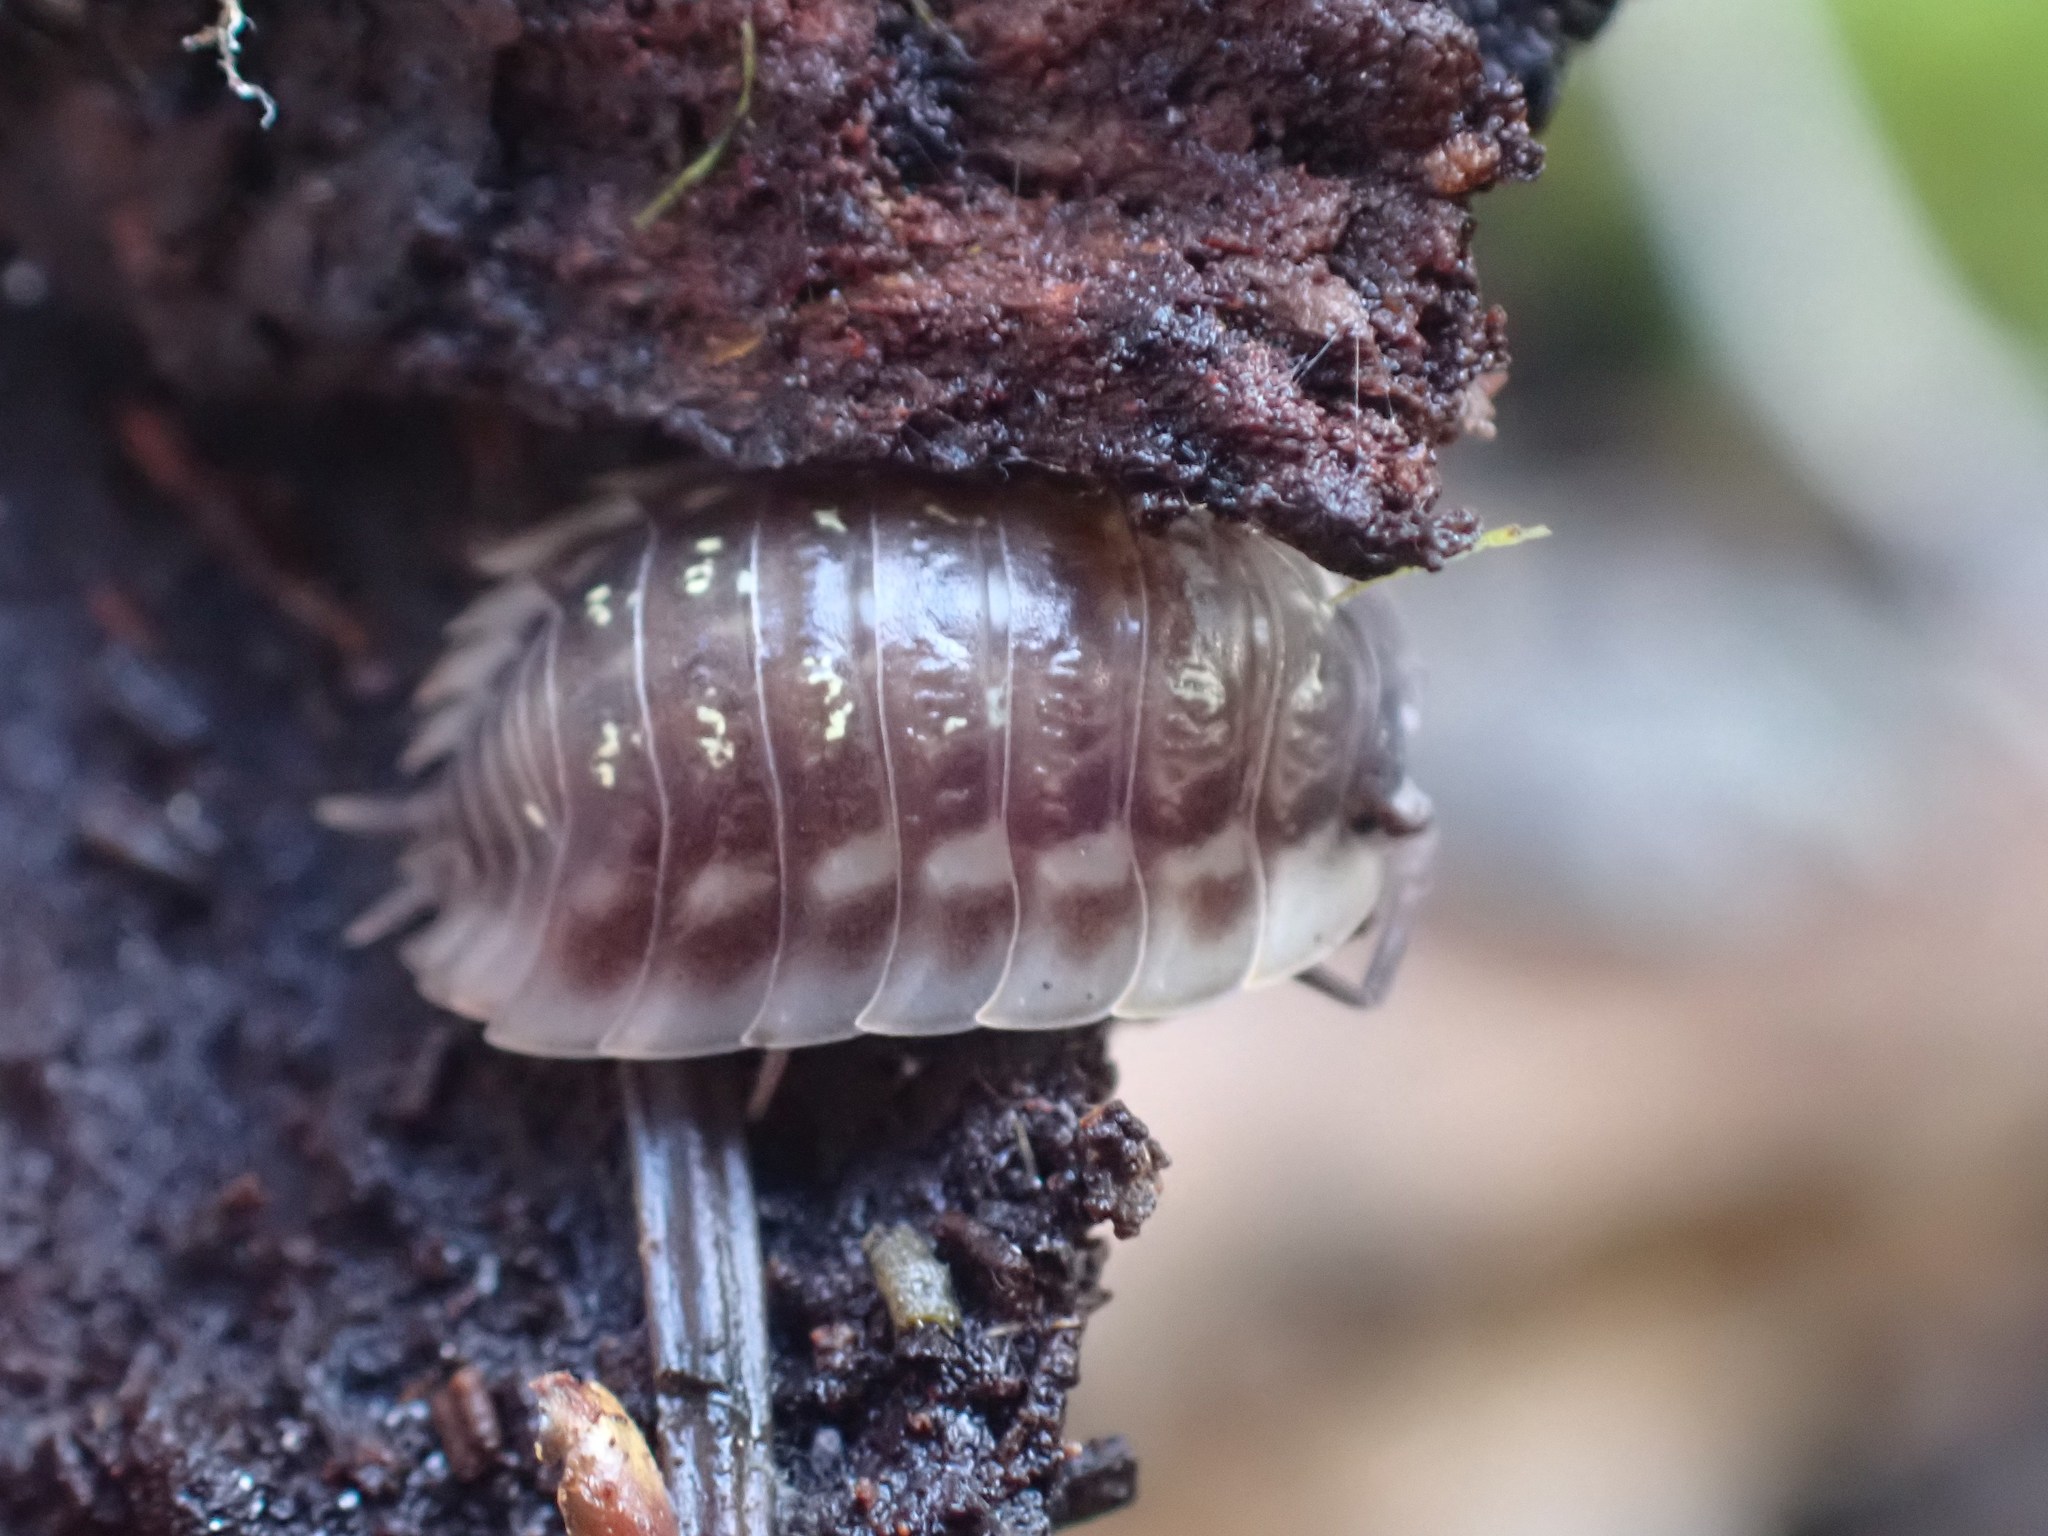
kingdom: Animalia
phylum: Arthropoda
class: Malacostraca
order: Isopoda
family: Oniscidae
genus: Oniscus
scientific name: Oniscus asellus
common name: Common shiny woodlouse
